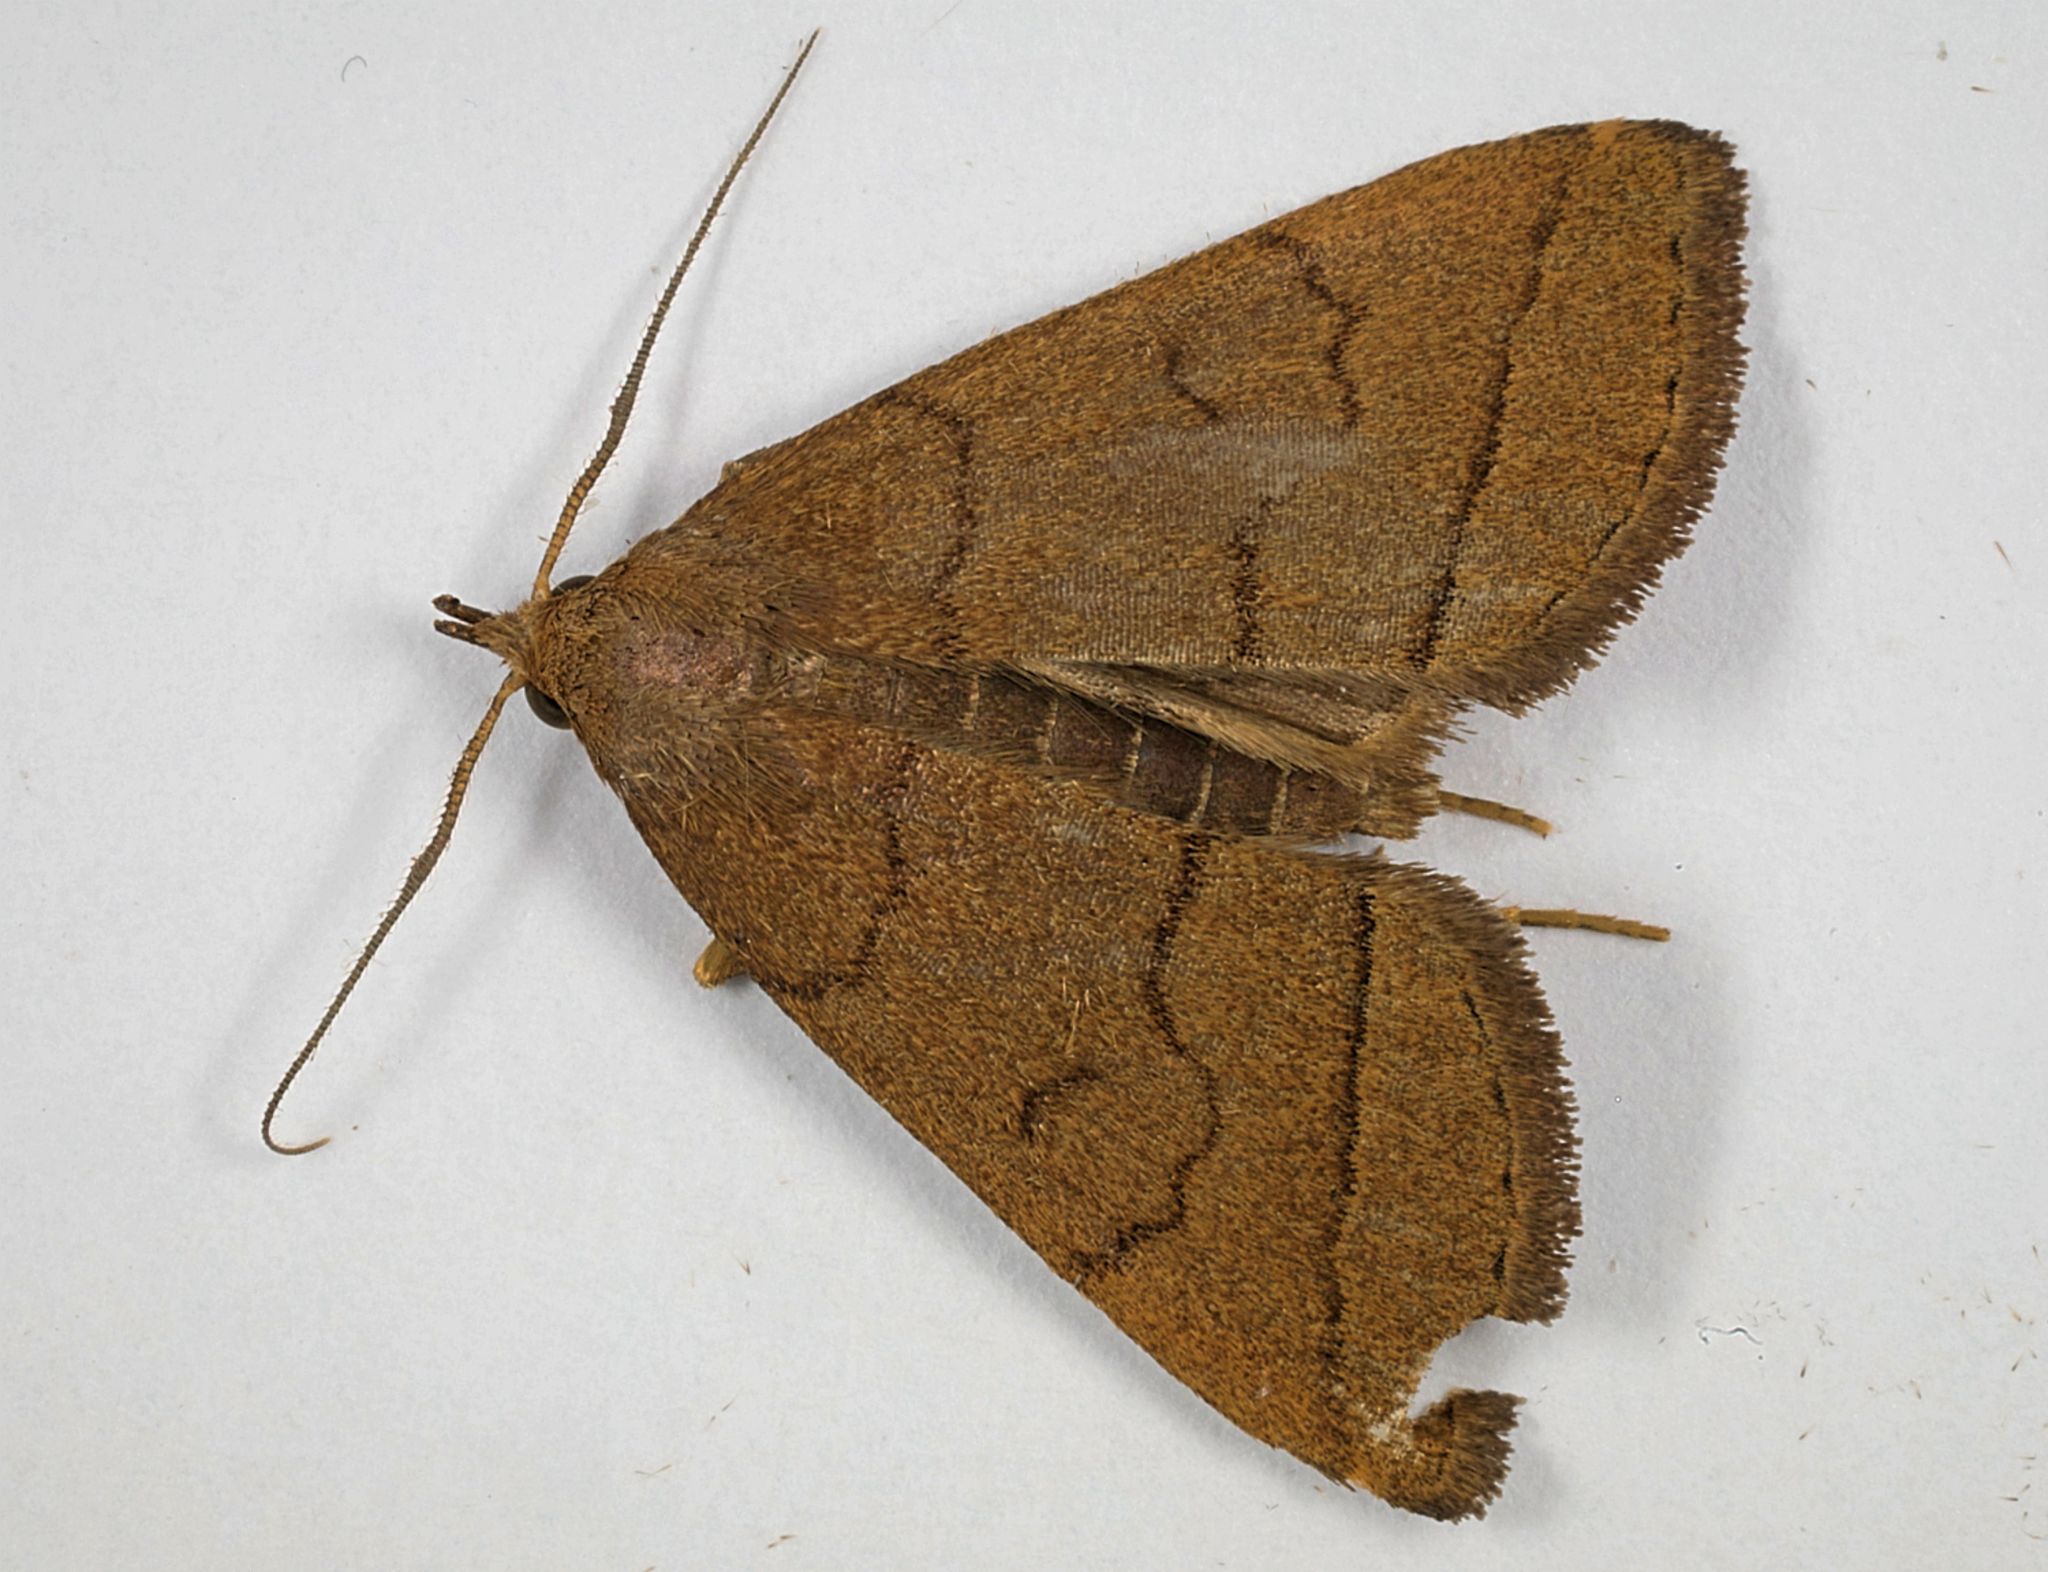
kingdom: Animalia
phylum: Arthropoda
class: Insecta
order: Lepidoptera
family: Erebidae
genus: Herminia
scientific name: Herminia tarsipennalis
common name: Fan-foot
